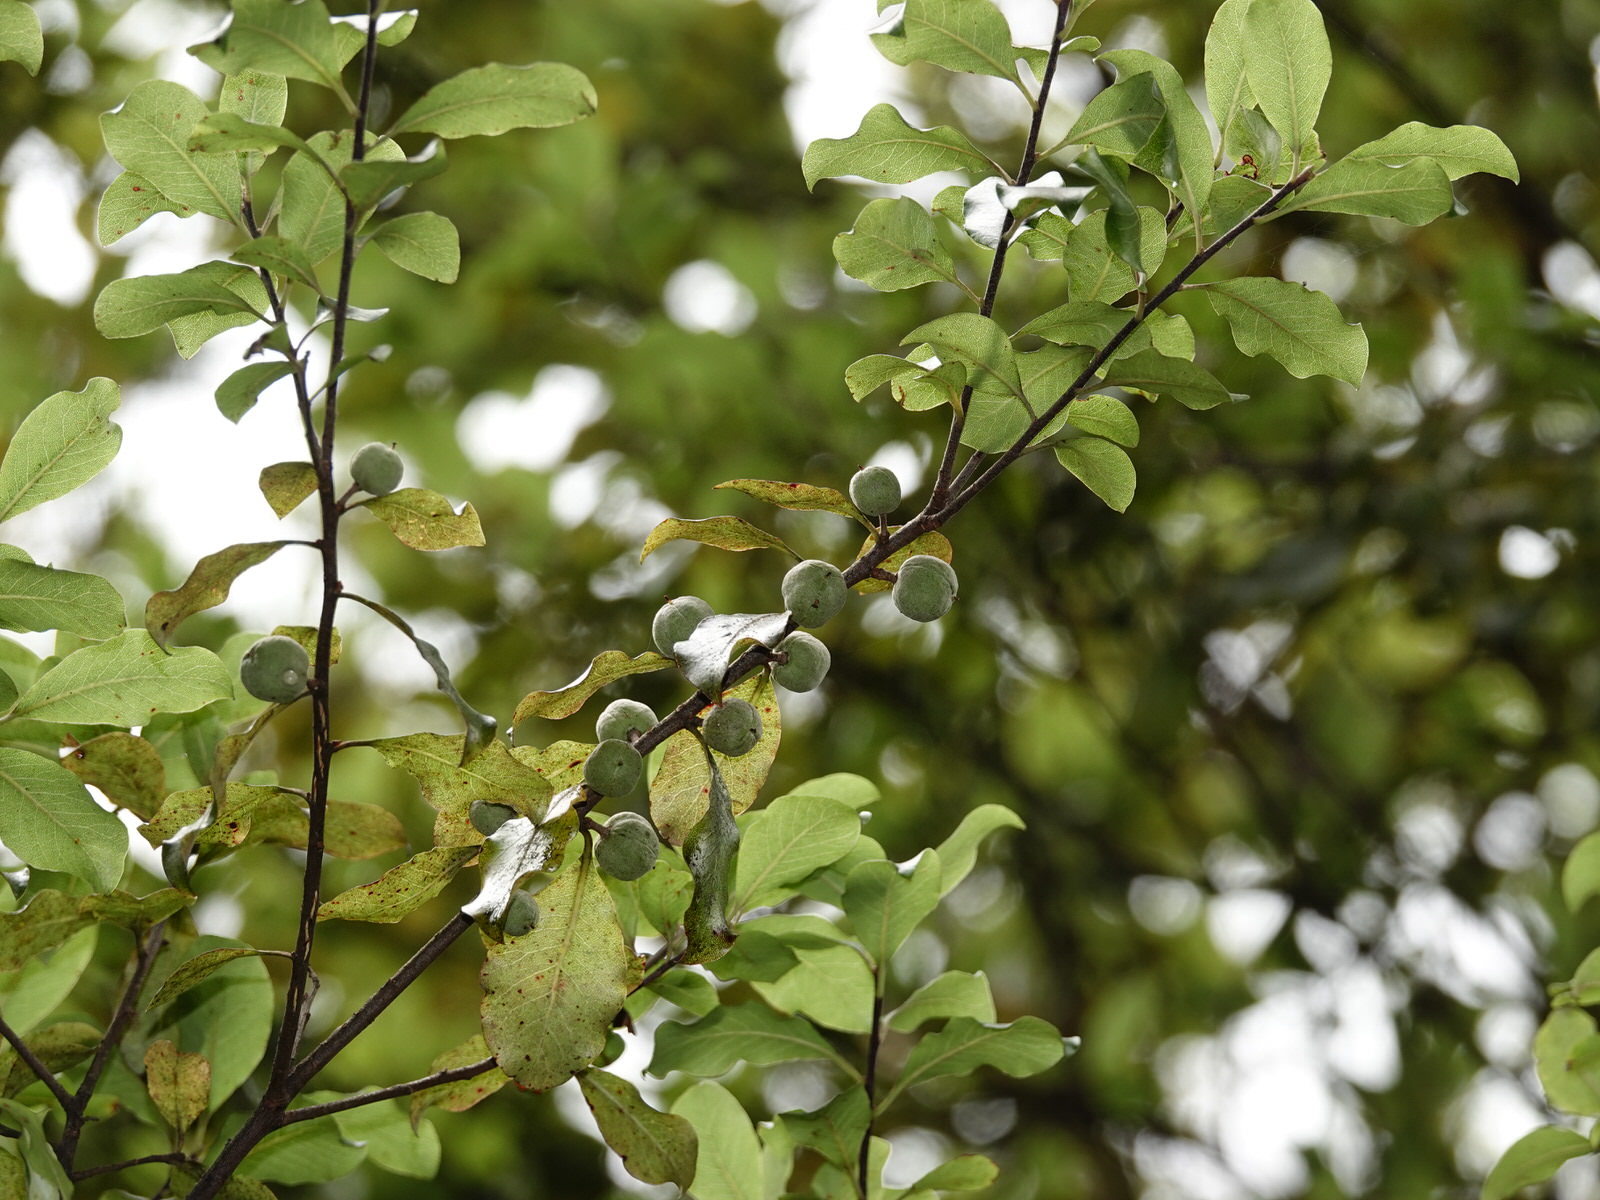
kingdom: Plantae
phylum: Tracheophyta
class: Magnoliopsida
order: Apiales
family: Pittosporaceae
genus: Pittosporum
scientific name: Pittosporum tenuifolium
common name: Kohuhu
